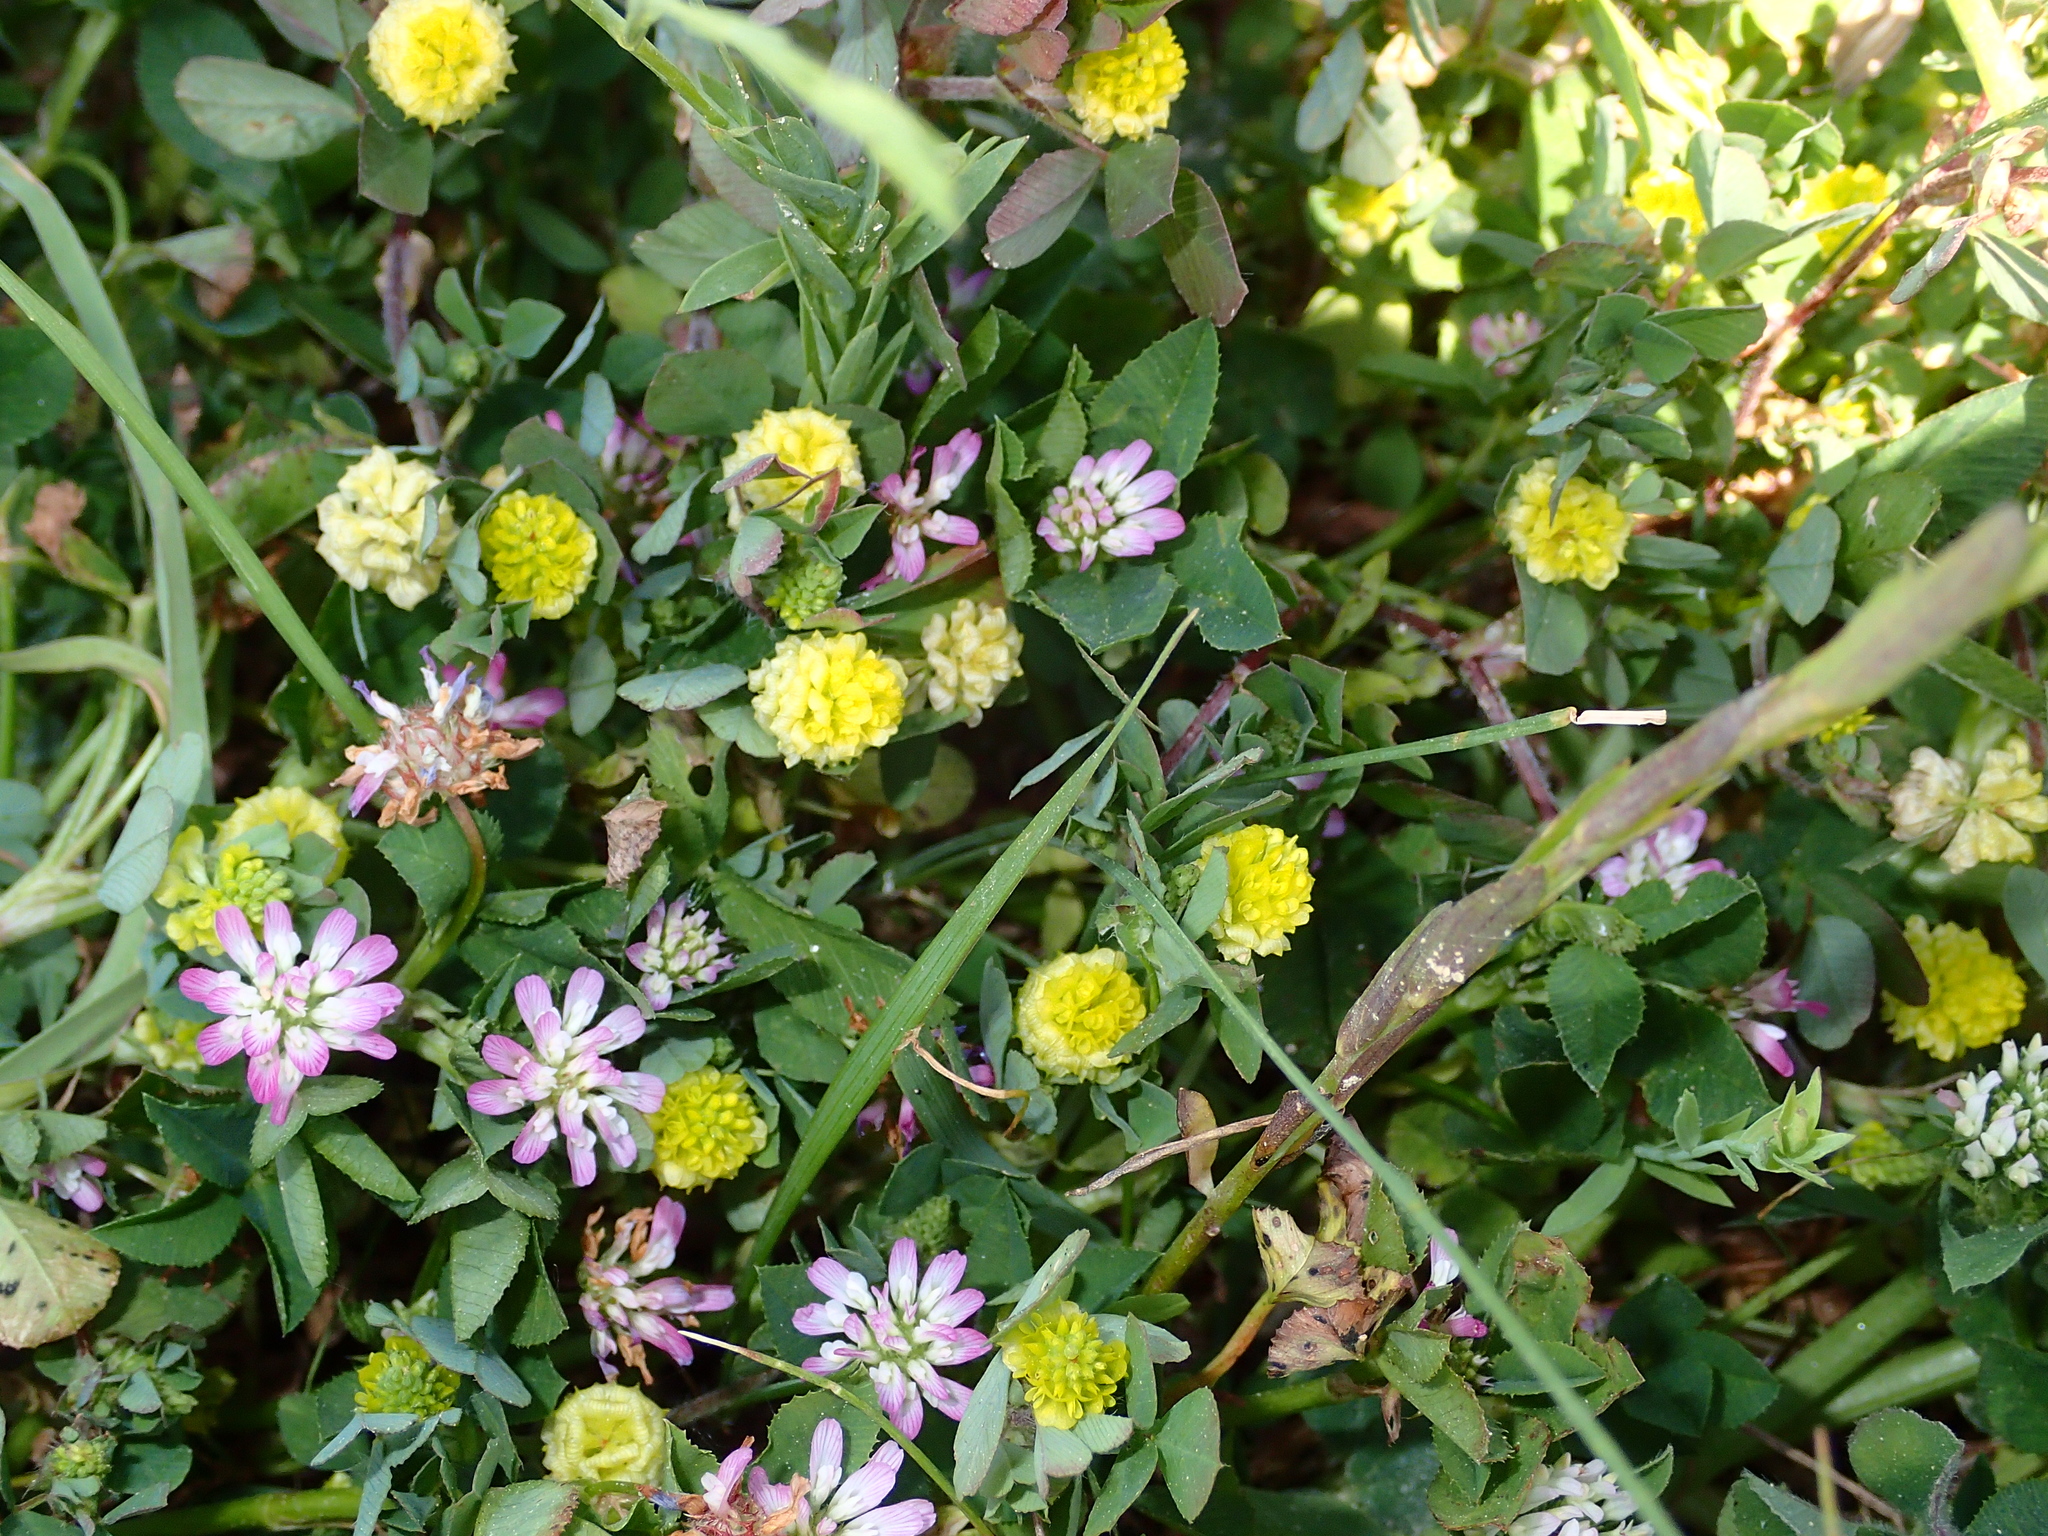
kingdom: Plantae
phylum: Tracheophyta
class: Magnoliopsida
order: Fabales
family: Fabaceae
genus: Trifolium
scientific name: Trifolium campestre
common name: Field clover
